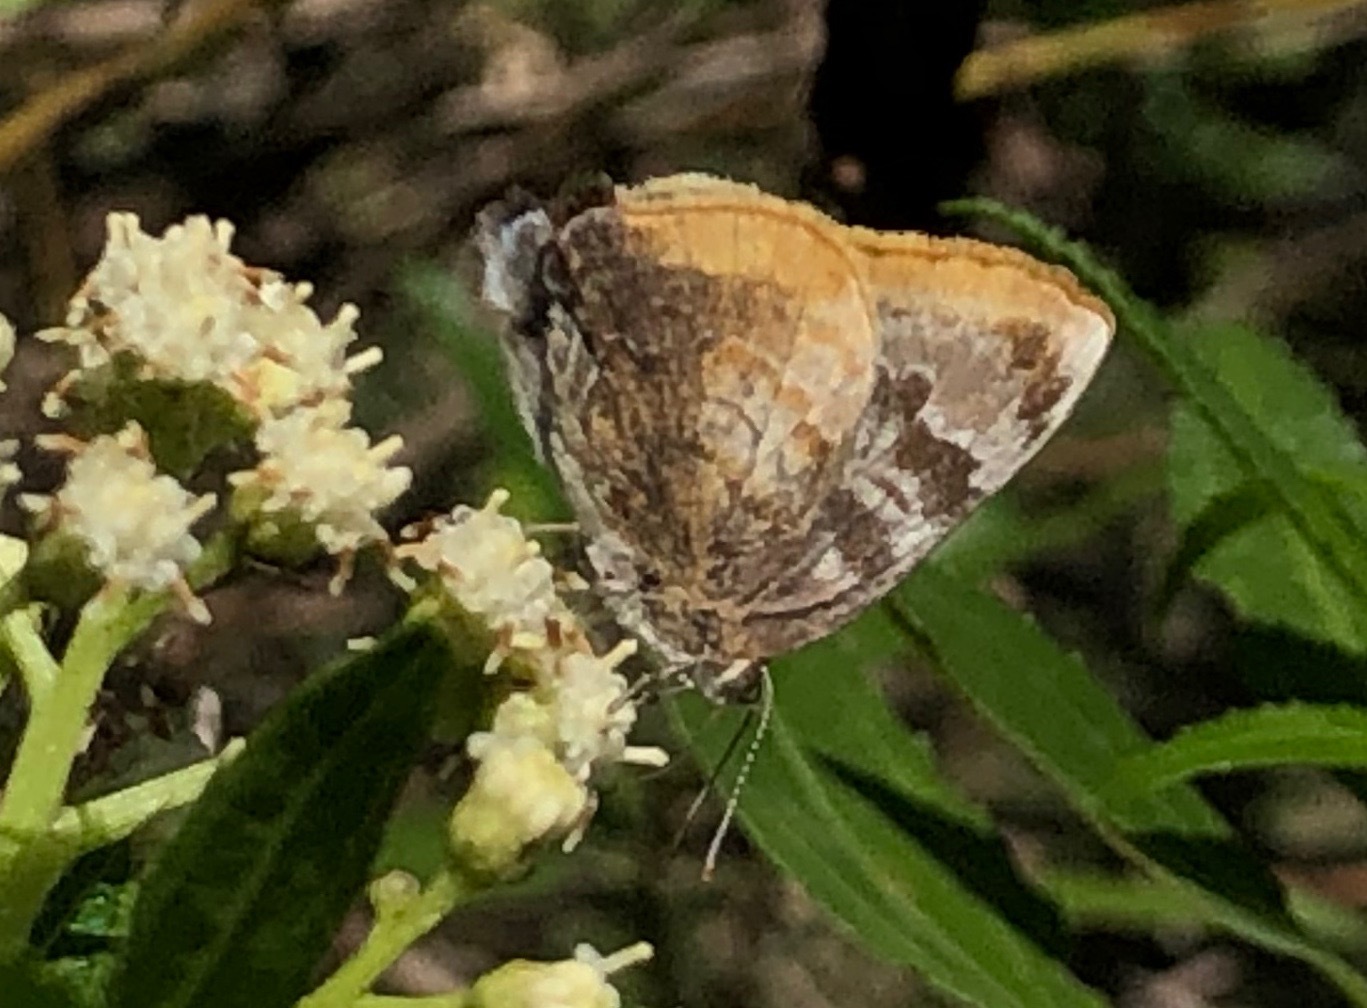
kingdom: Animalia
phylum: Arthropoda
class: Insecta
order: Lepidoptera
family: Lycaenidae
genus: Rekoa
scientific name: Rekoa palegon
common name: Gold-bordered hairstreak
